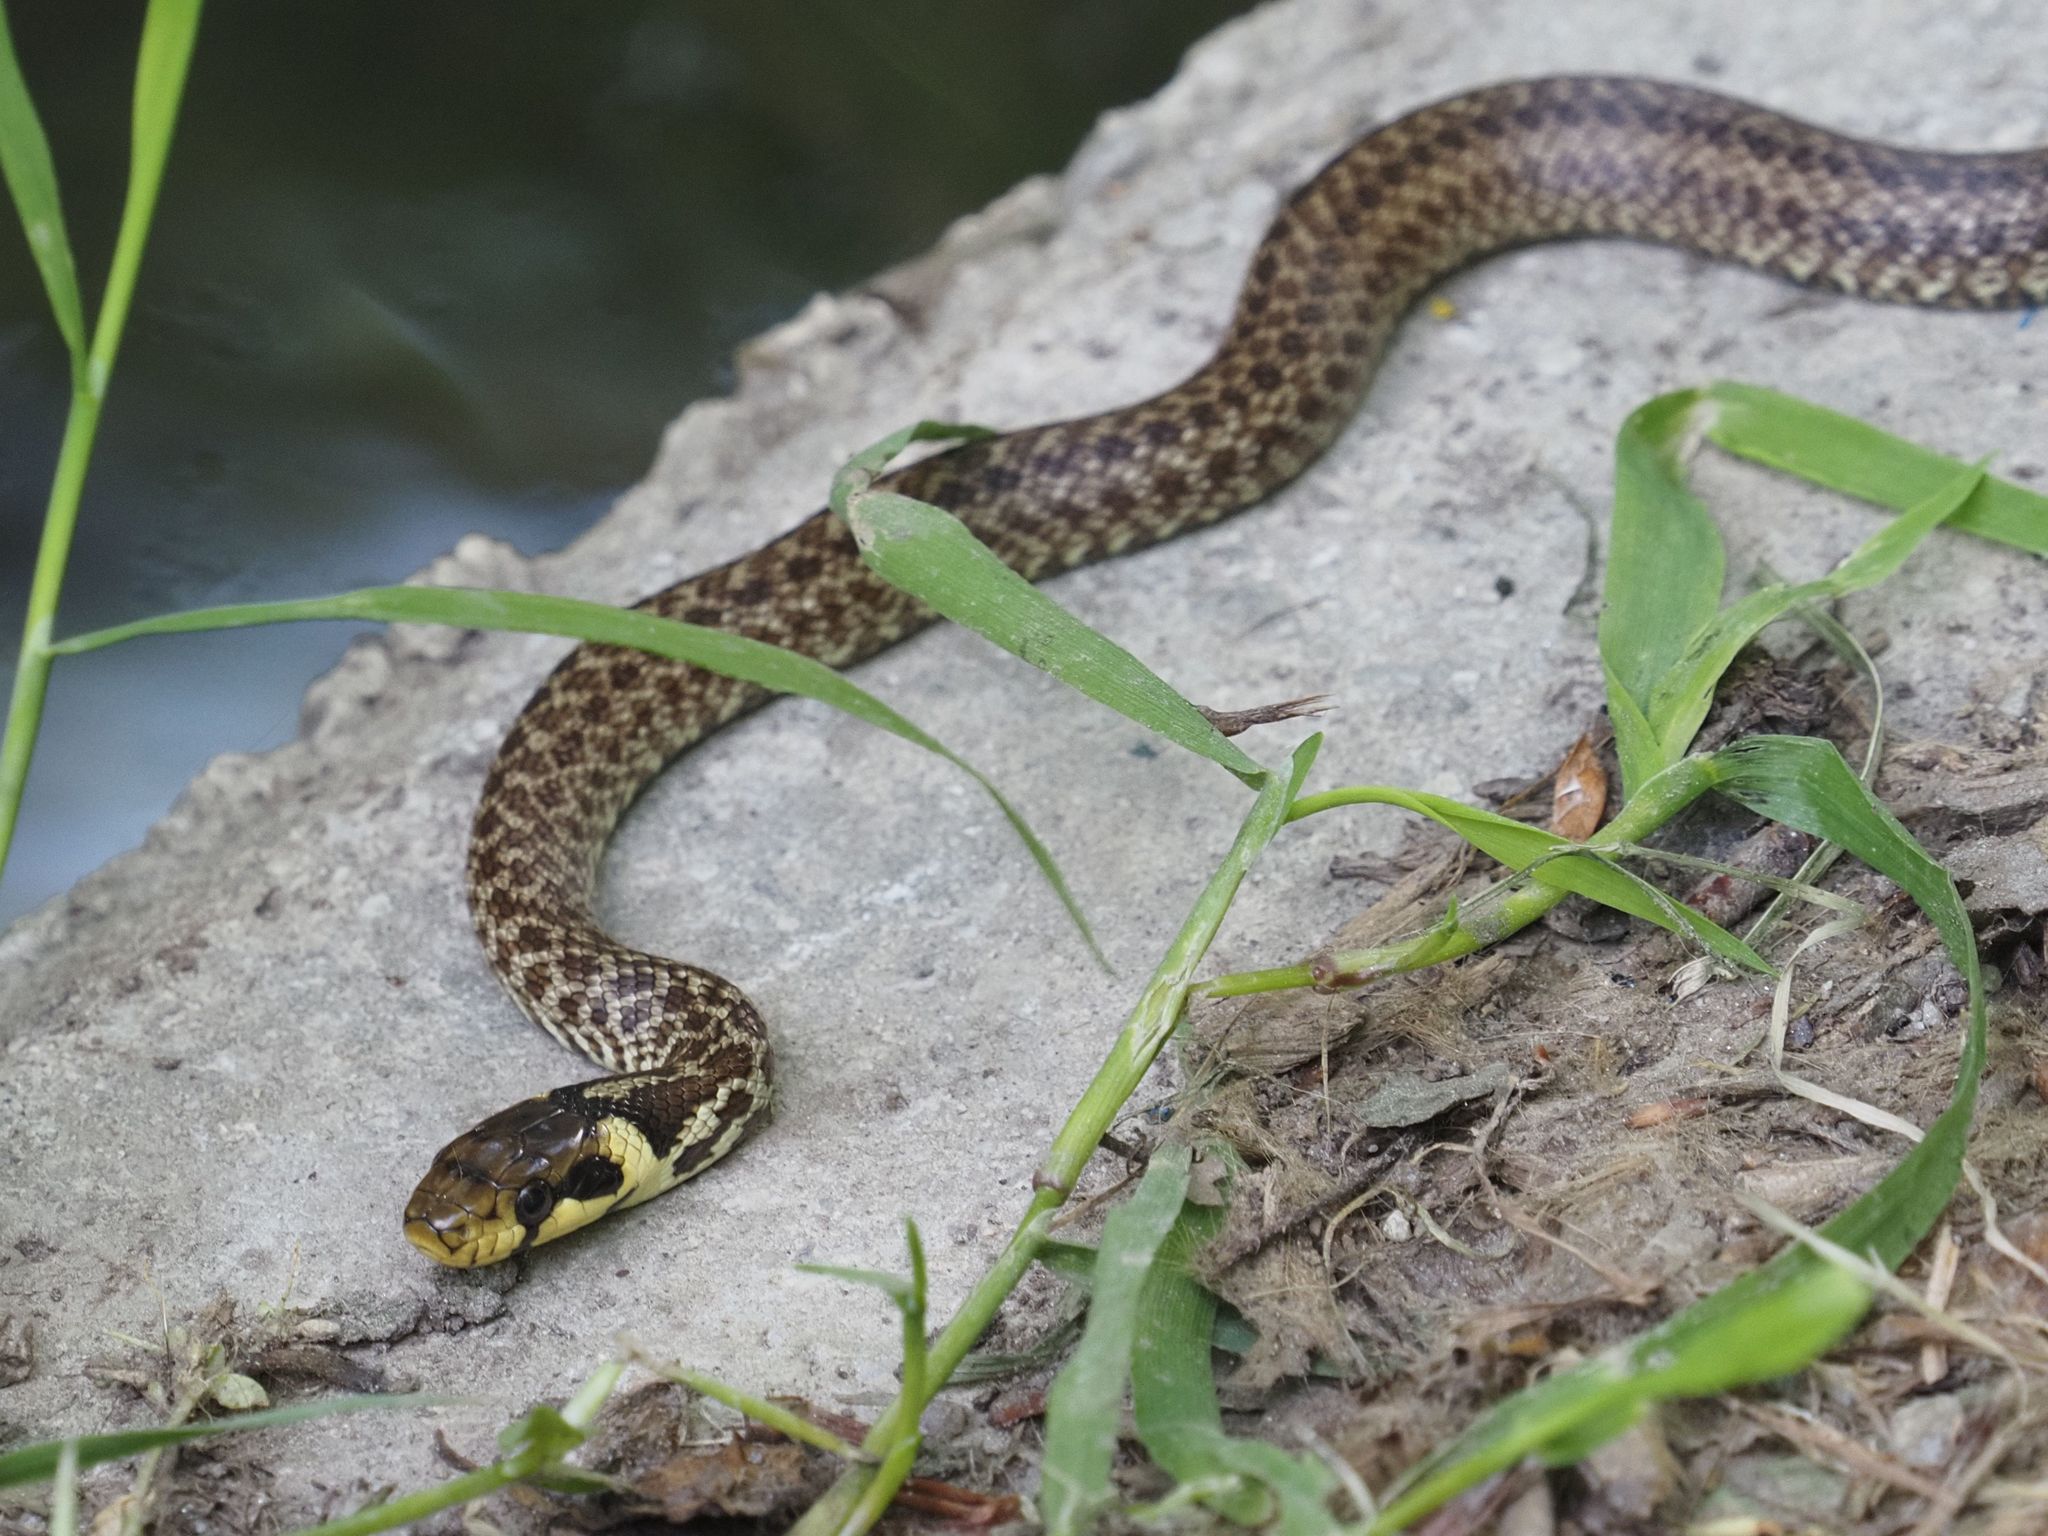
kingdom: Animalia
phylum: Chordata
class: Squamata
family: Colubridae
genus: Zamenis
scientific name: Zamenis longissimus
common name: Aesculapean snake
